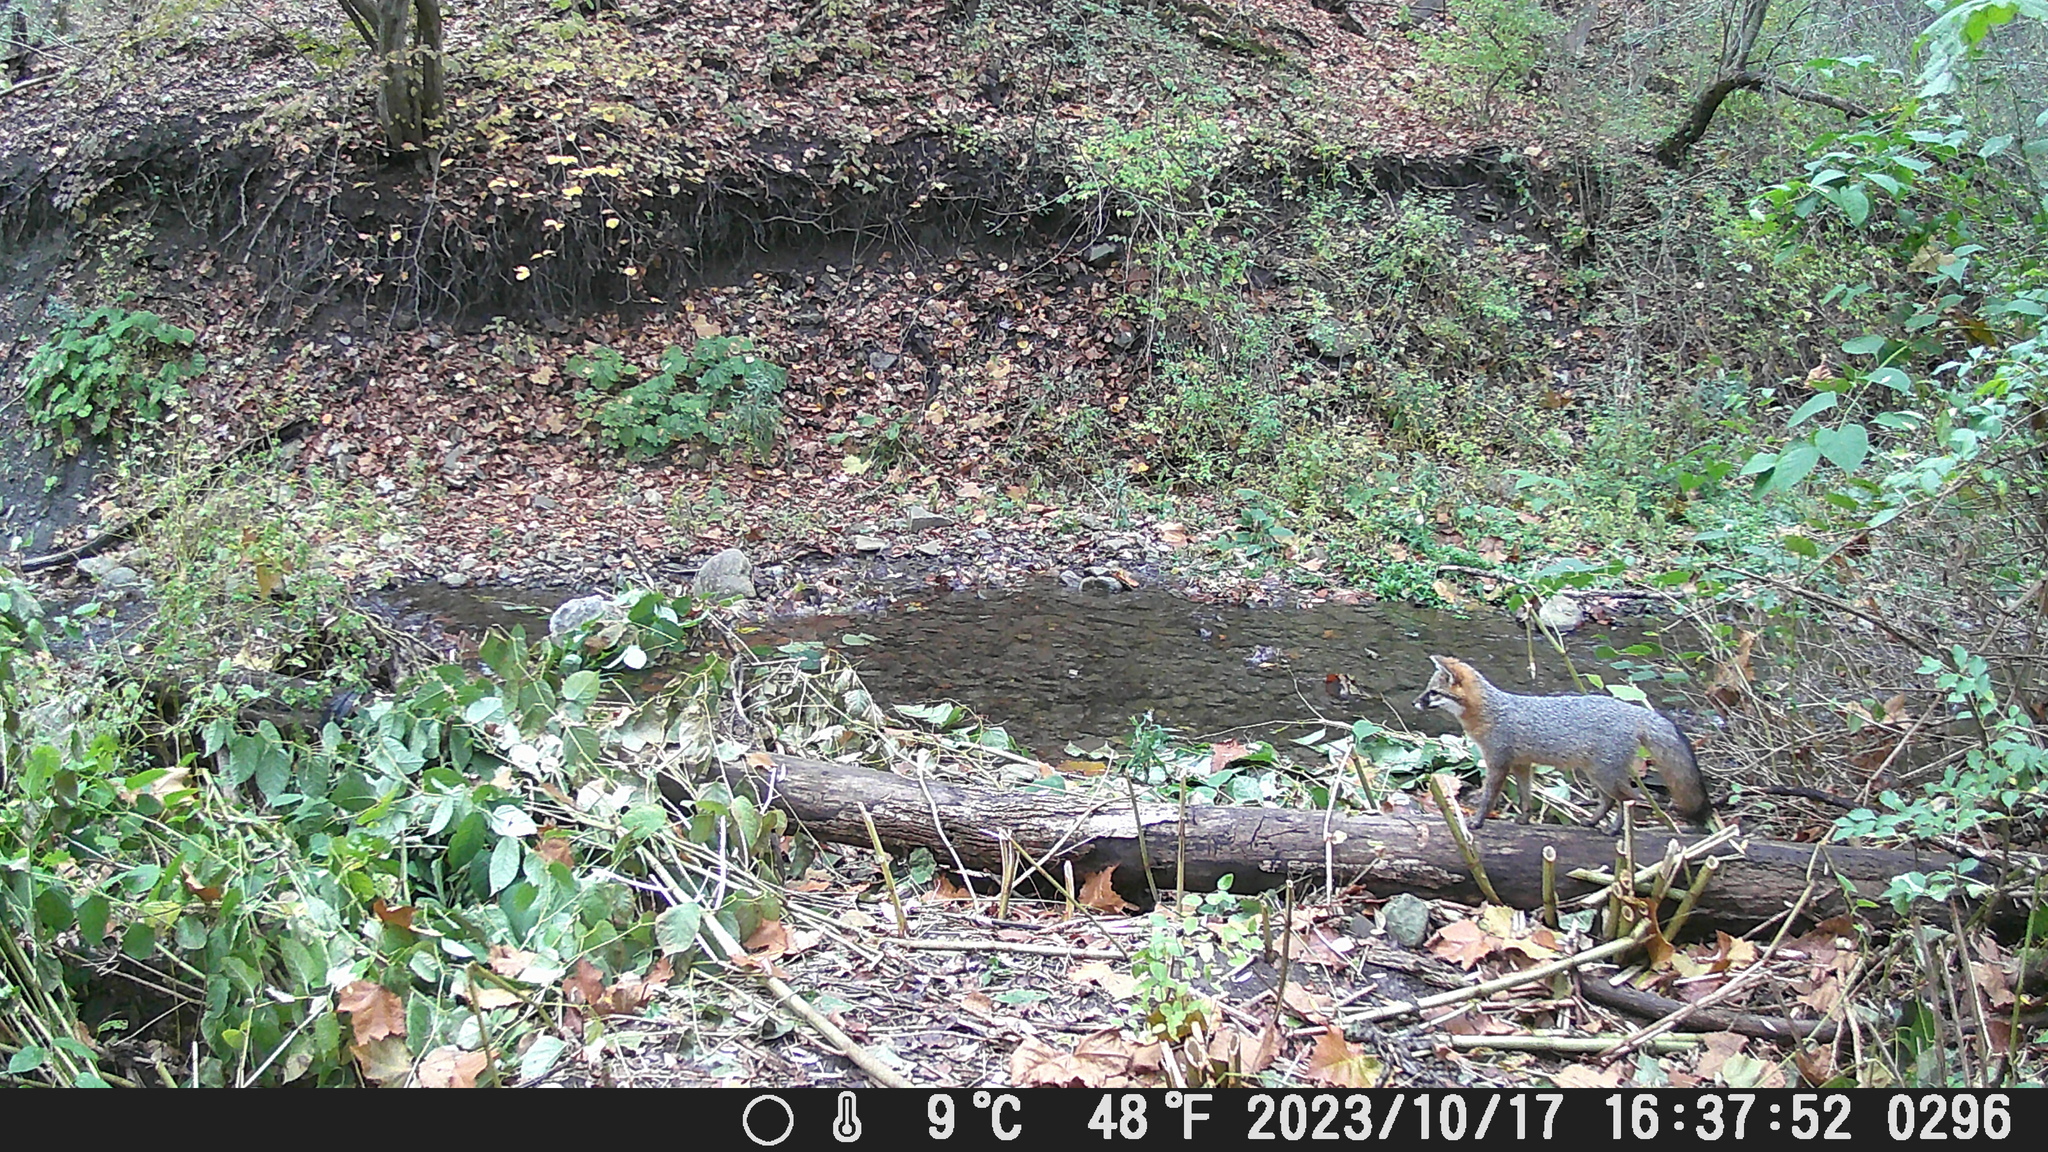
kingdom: Animalia
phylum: Chordata
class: Mammalia
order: Carnivora
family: Canidae
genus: Urocyon
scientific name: Urocyon cinereoargenteus
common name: Gray fox
